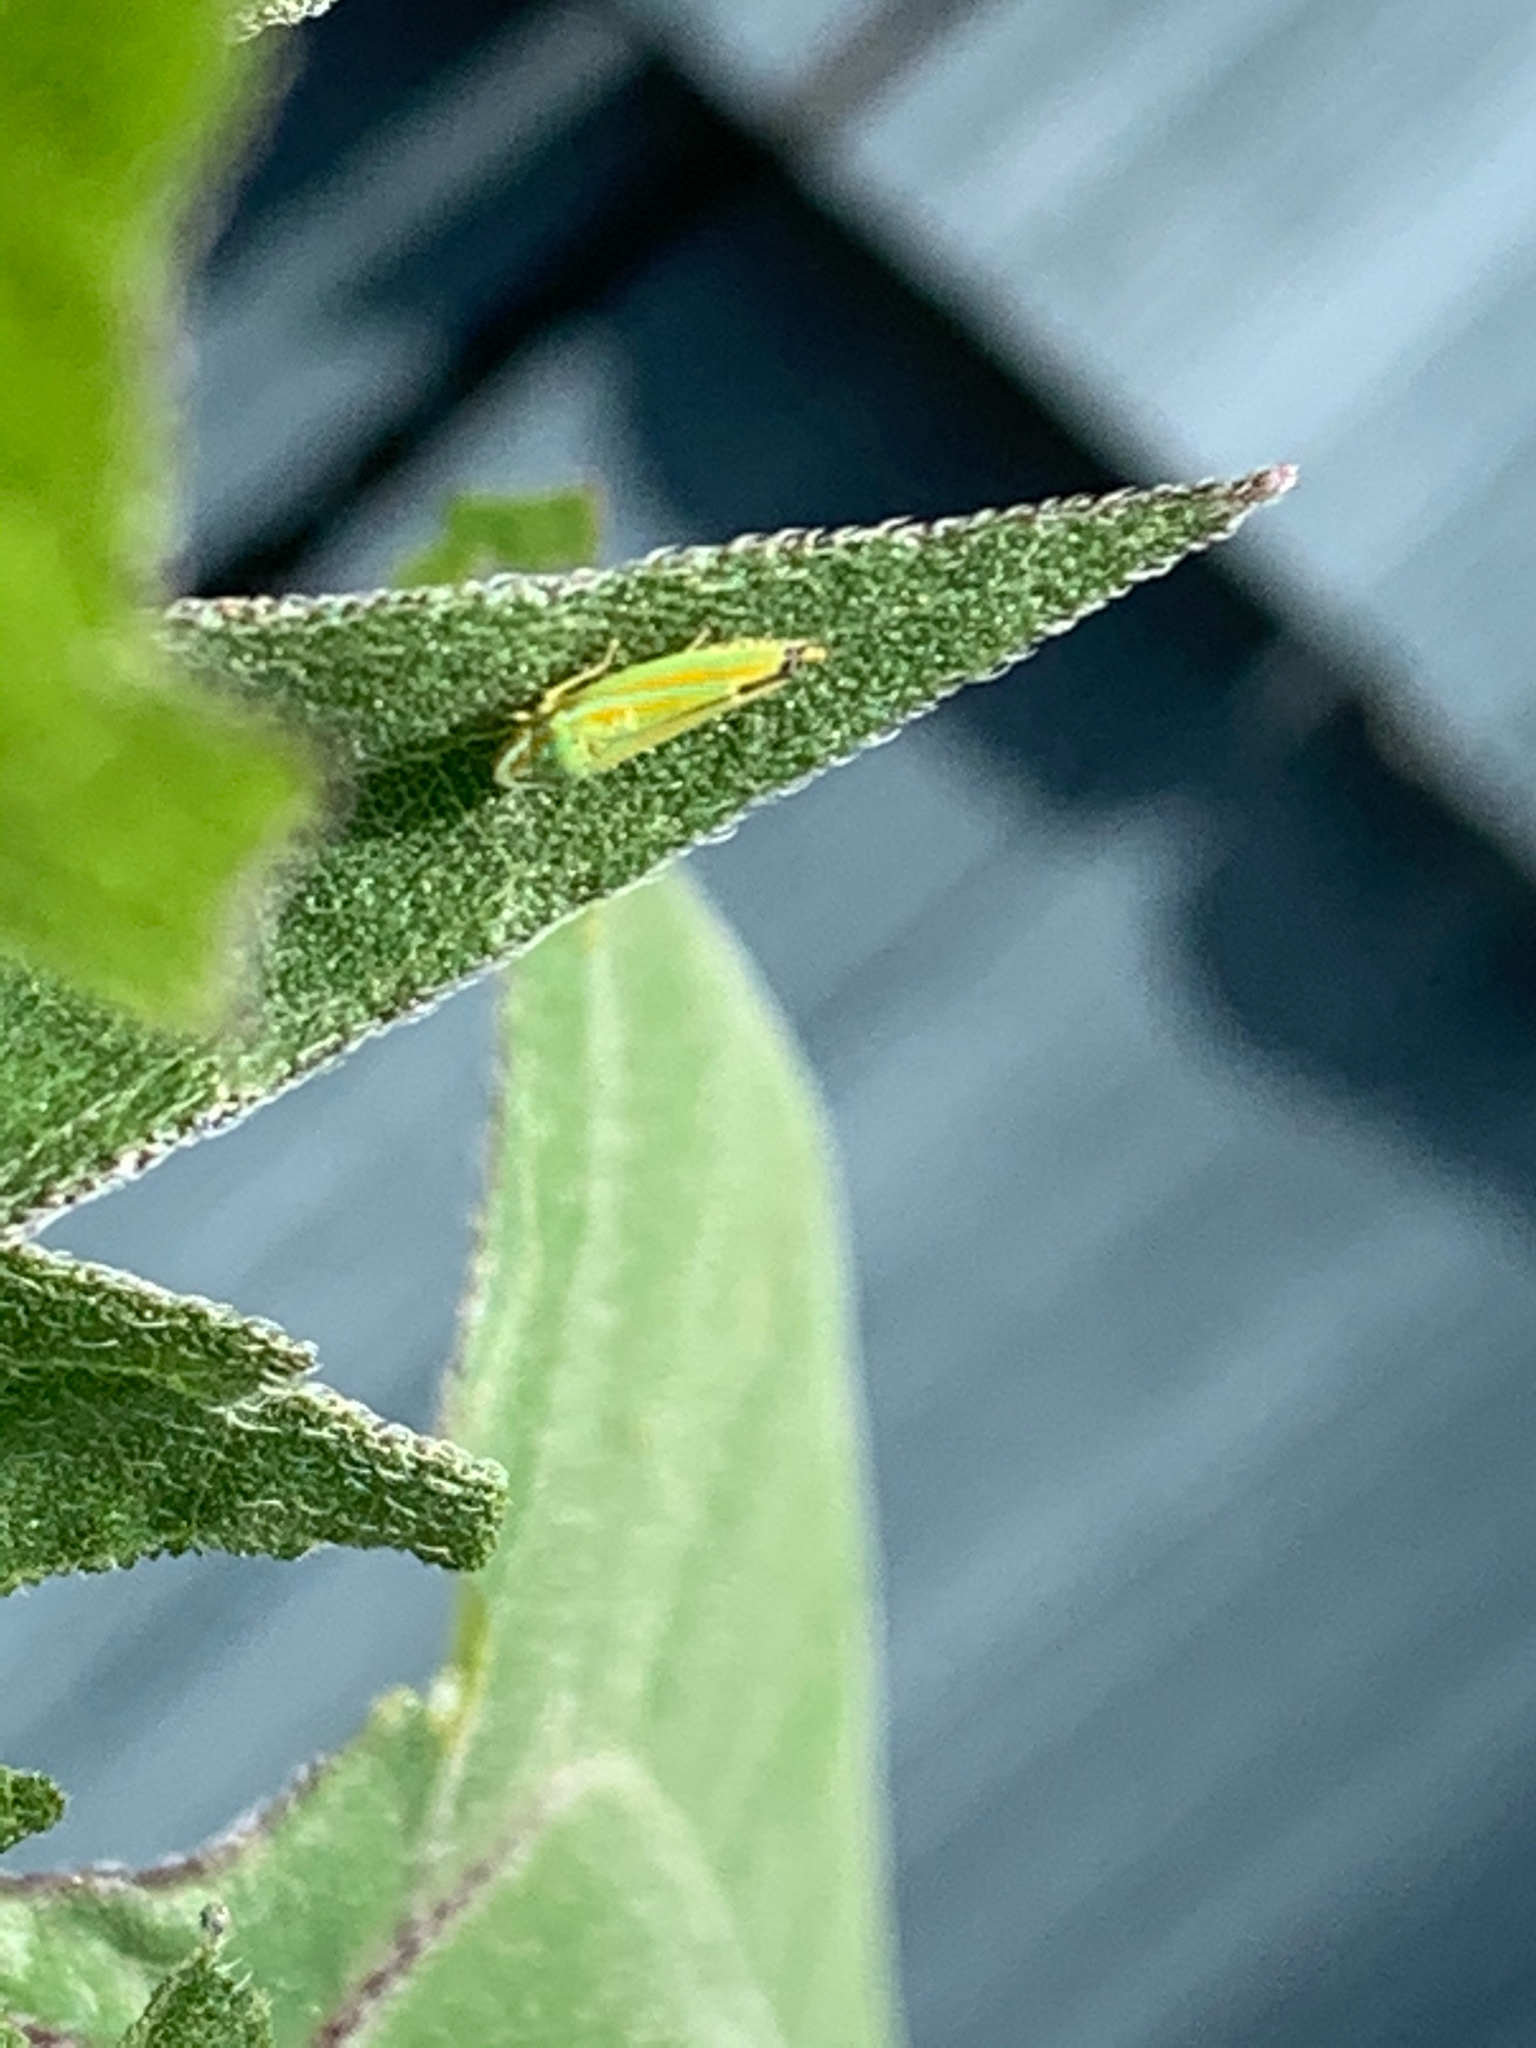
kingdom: Animalia
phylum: Arthropoda
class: Insecta
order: Hemiptera
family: Cicadellidae
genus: Graphocephala
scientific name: Graphocephala versuta
